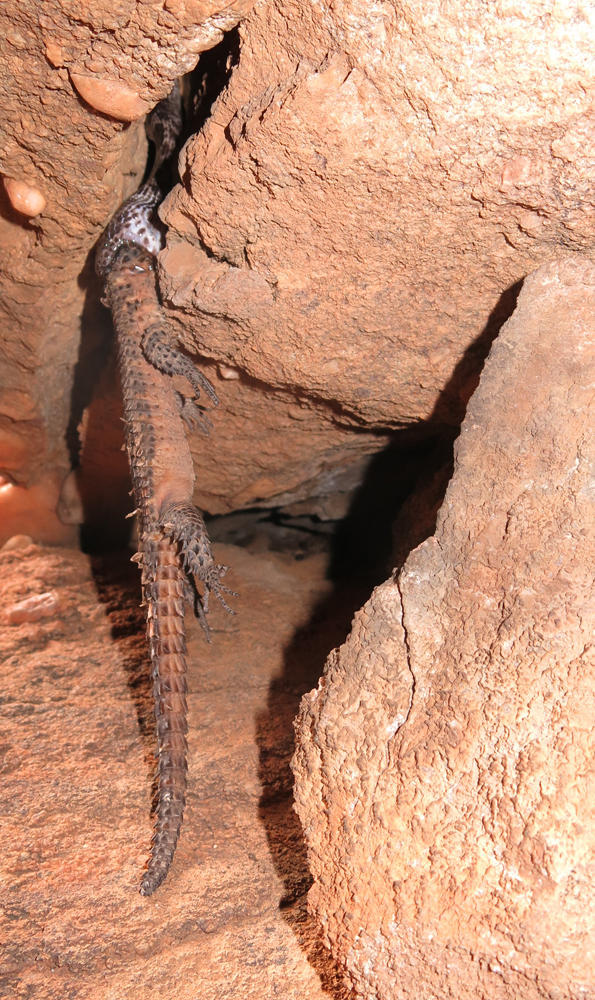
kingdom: Animalia
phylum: Chordata
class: Squamata
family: Cordylidae
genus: Smaug
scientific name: Smaug breyeri
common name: Waterberg dragon lizard
